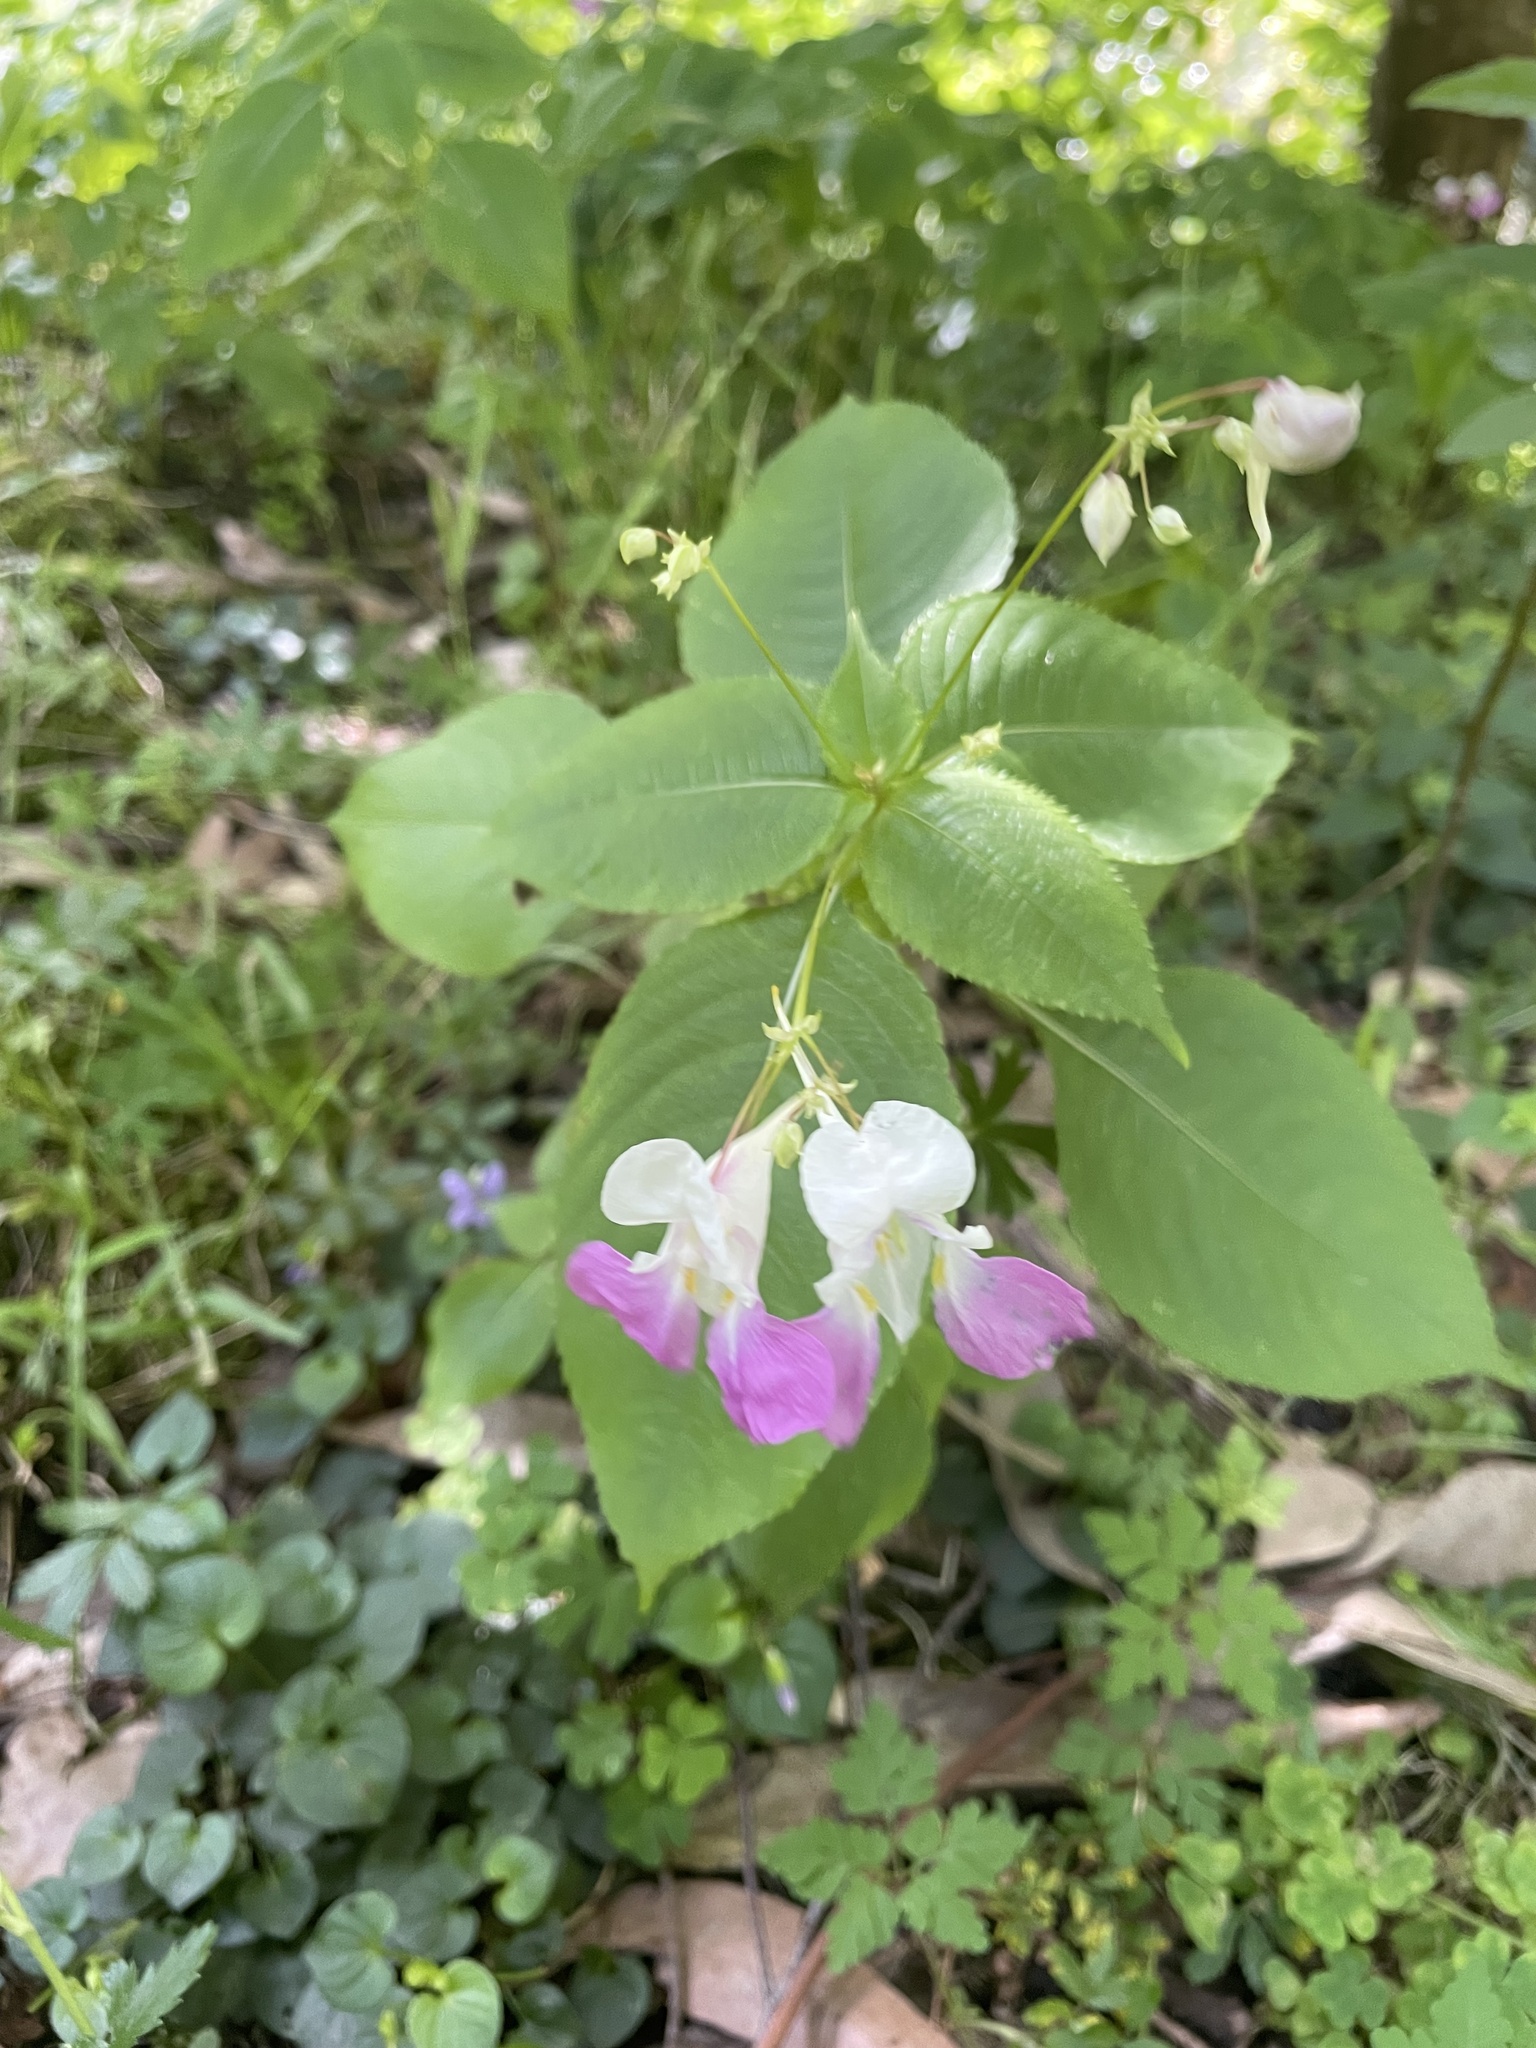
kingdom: Plantae
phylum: Tracheophyta
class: Magnoliopsida
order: Ericales
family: Balsaminaceae
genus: Impatiens
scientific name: Impatiens balfourii
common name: Balfour's touch-me-not
